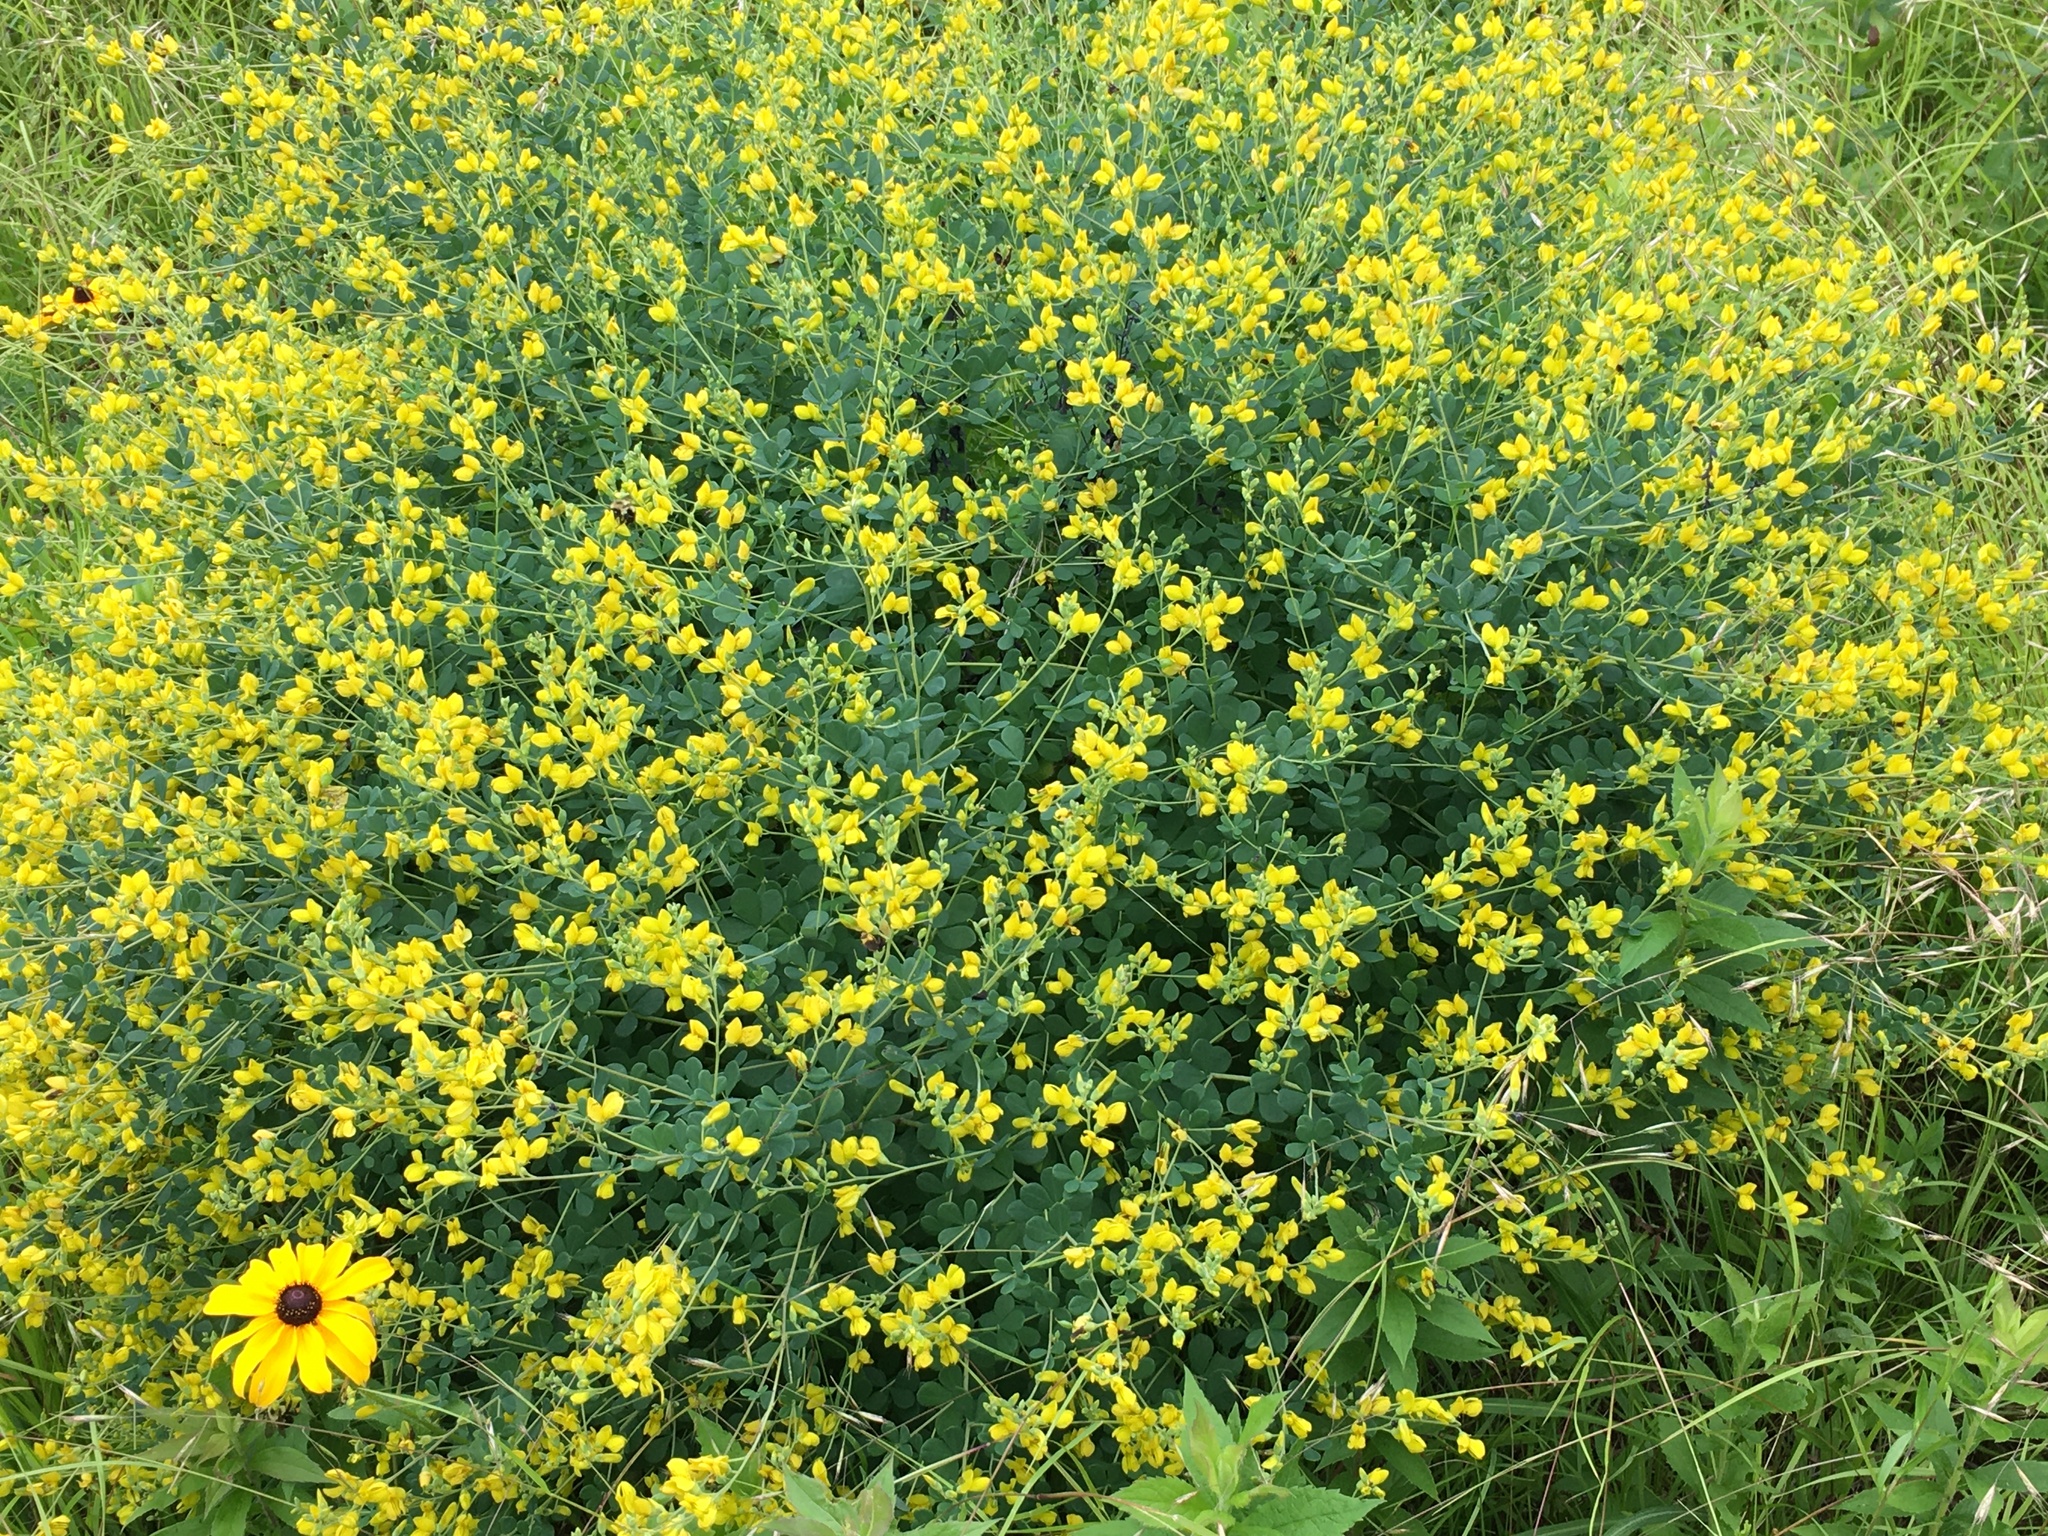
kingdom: Plantae
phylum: Tracheophyta
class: Magnoliopsida
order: Fabales
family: Fabaceae
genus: Baptisia
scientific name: Baptisia tinctoria
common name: Wild indigo
